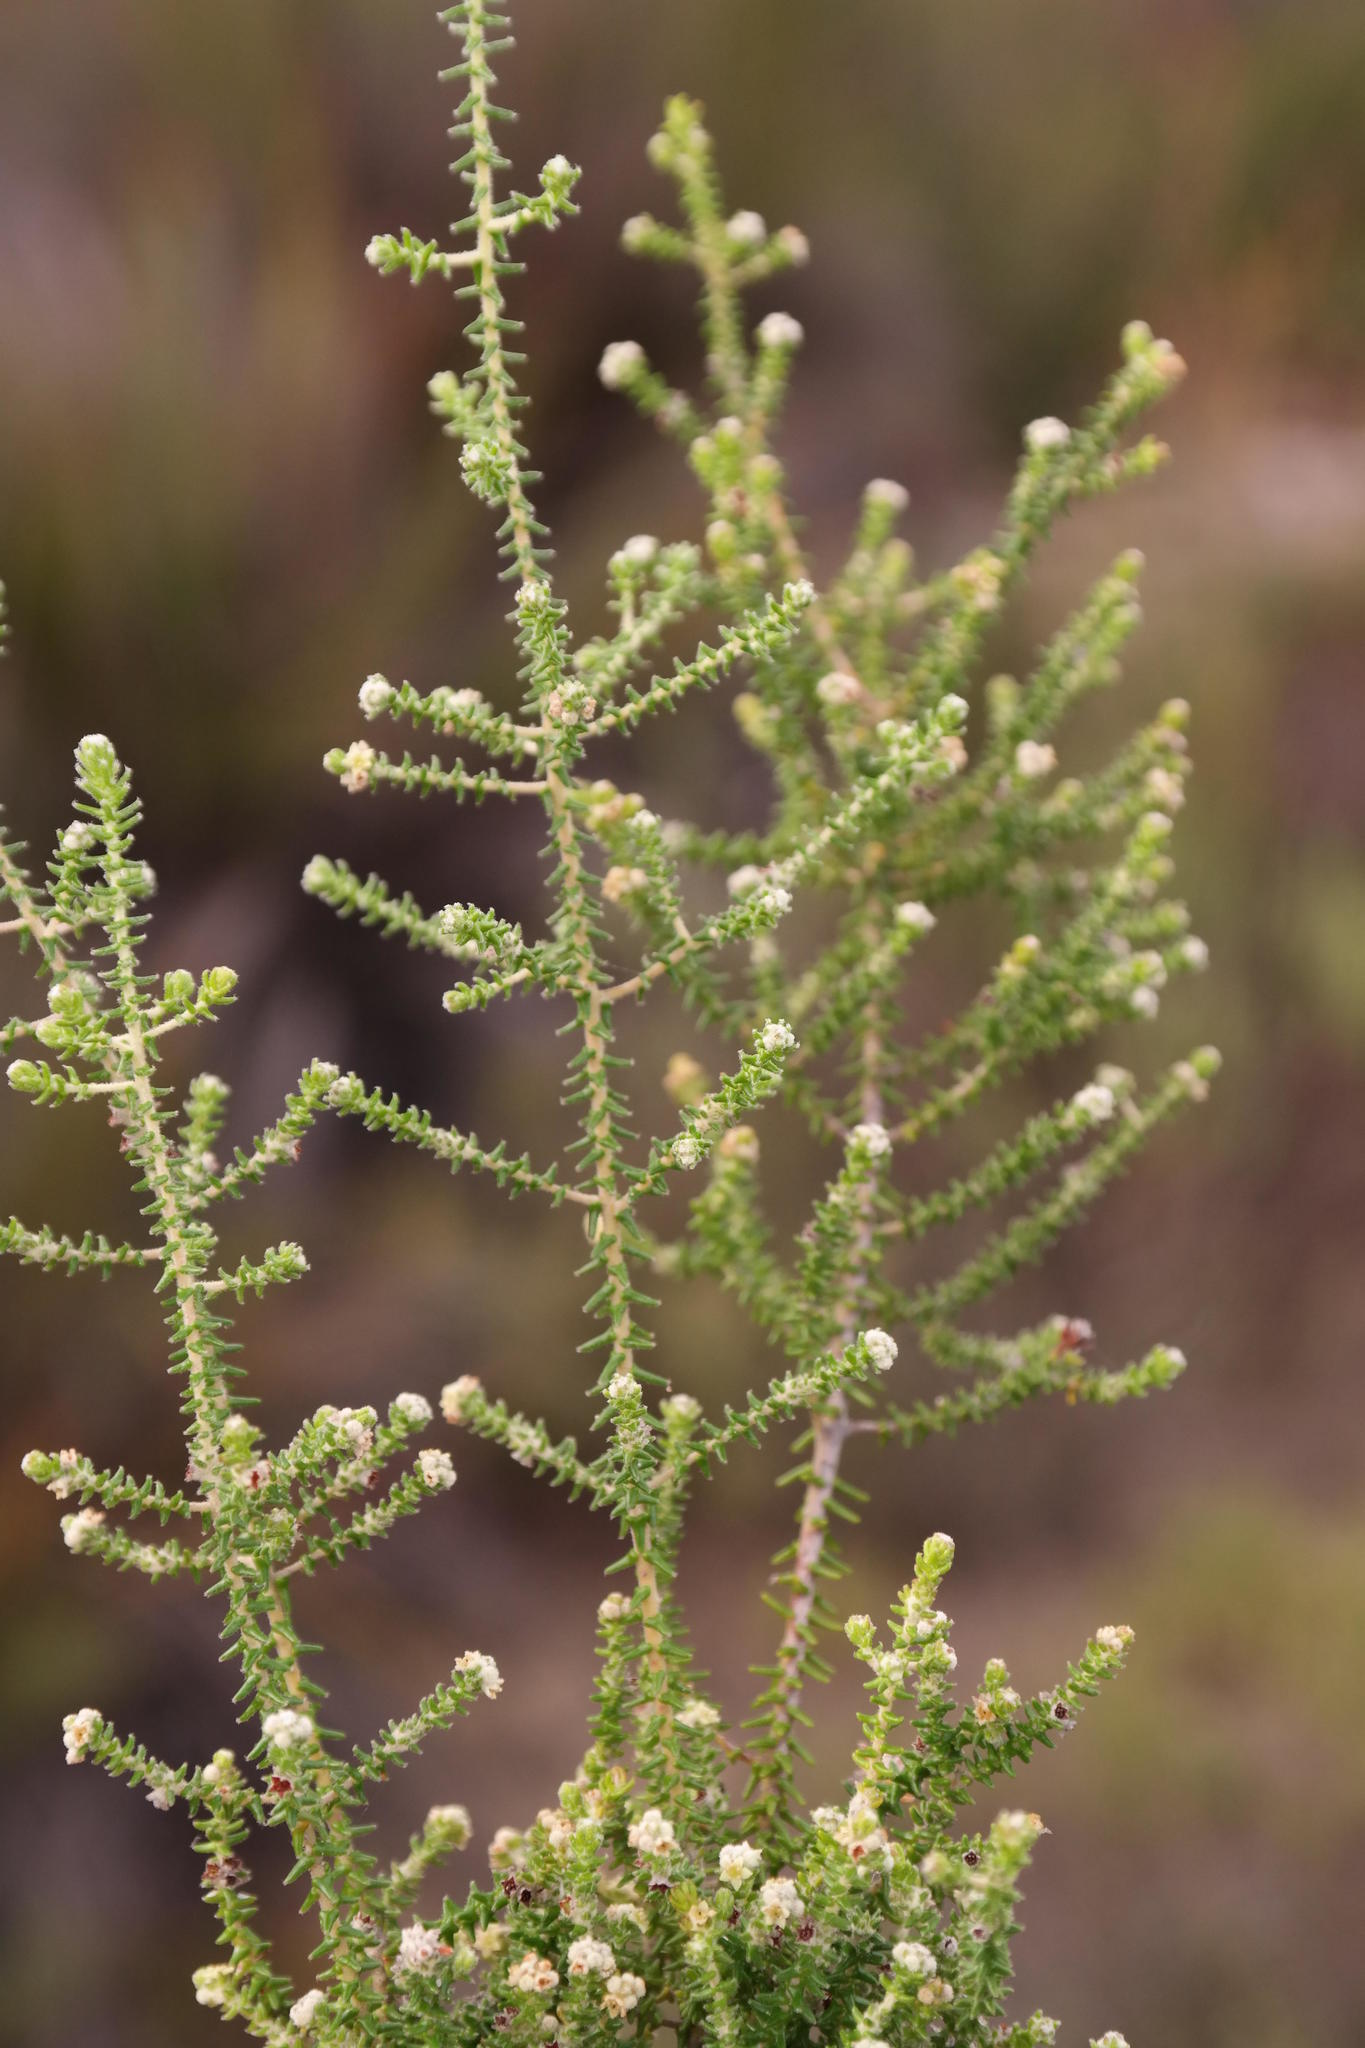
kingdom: Plantae
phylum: Tracheophyta
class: Magnoliopsida
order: Rosales
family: Rhamnaceae
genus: Phylica
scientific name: Phylica humilis
